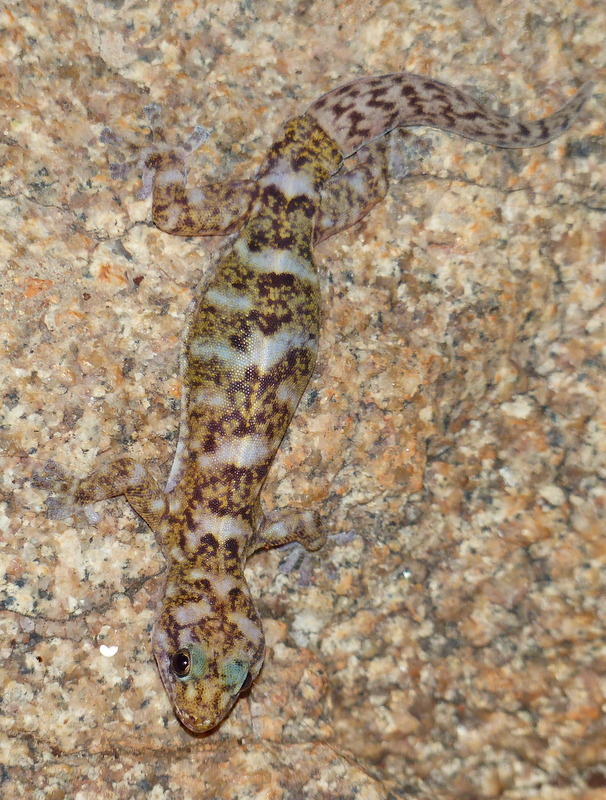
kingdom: Animalia
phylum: Chordata
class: Squamata
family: Gekkonidae
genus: Afroedura
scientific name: Afroedura transvaalica
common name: Transvaal flat gecko
